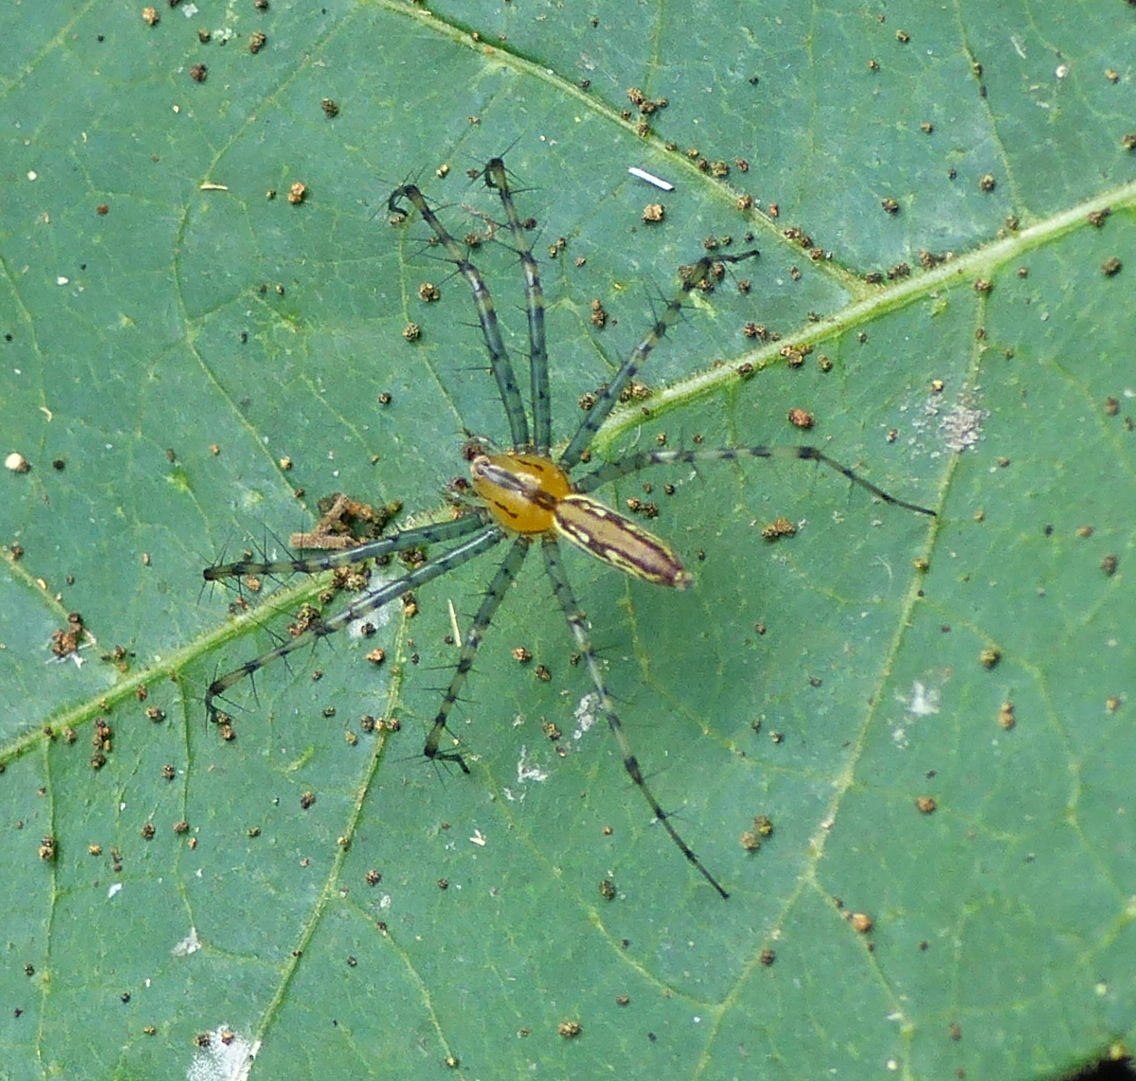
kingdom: Animalia
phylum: Arthropoda
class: Arachnida
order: Araneae
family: Oxyopidae
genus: Peucetia
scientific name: Peucetia rubrolineata
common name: Lynx spiders
